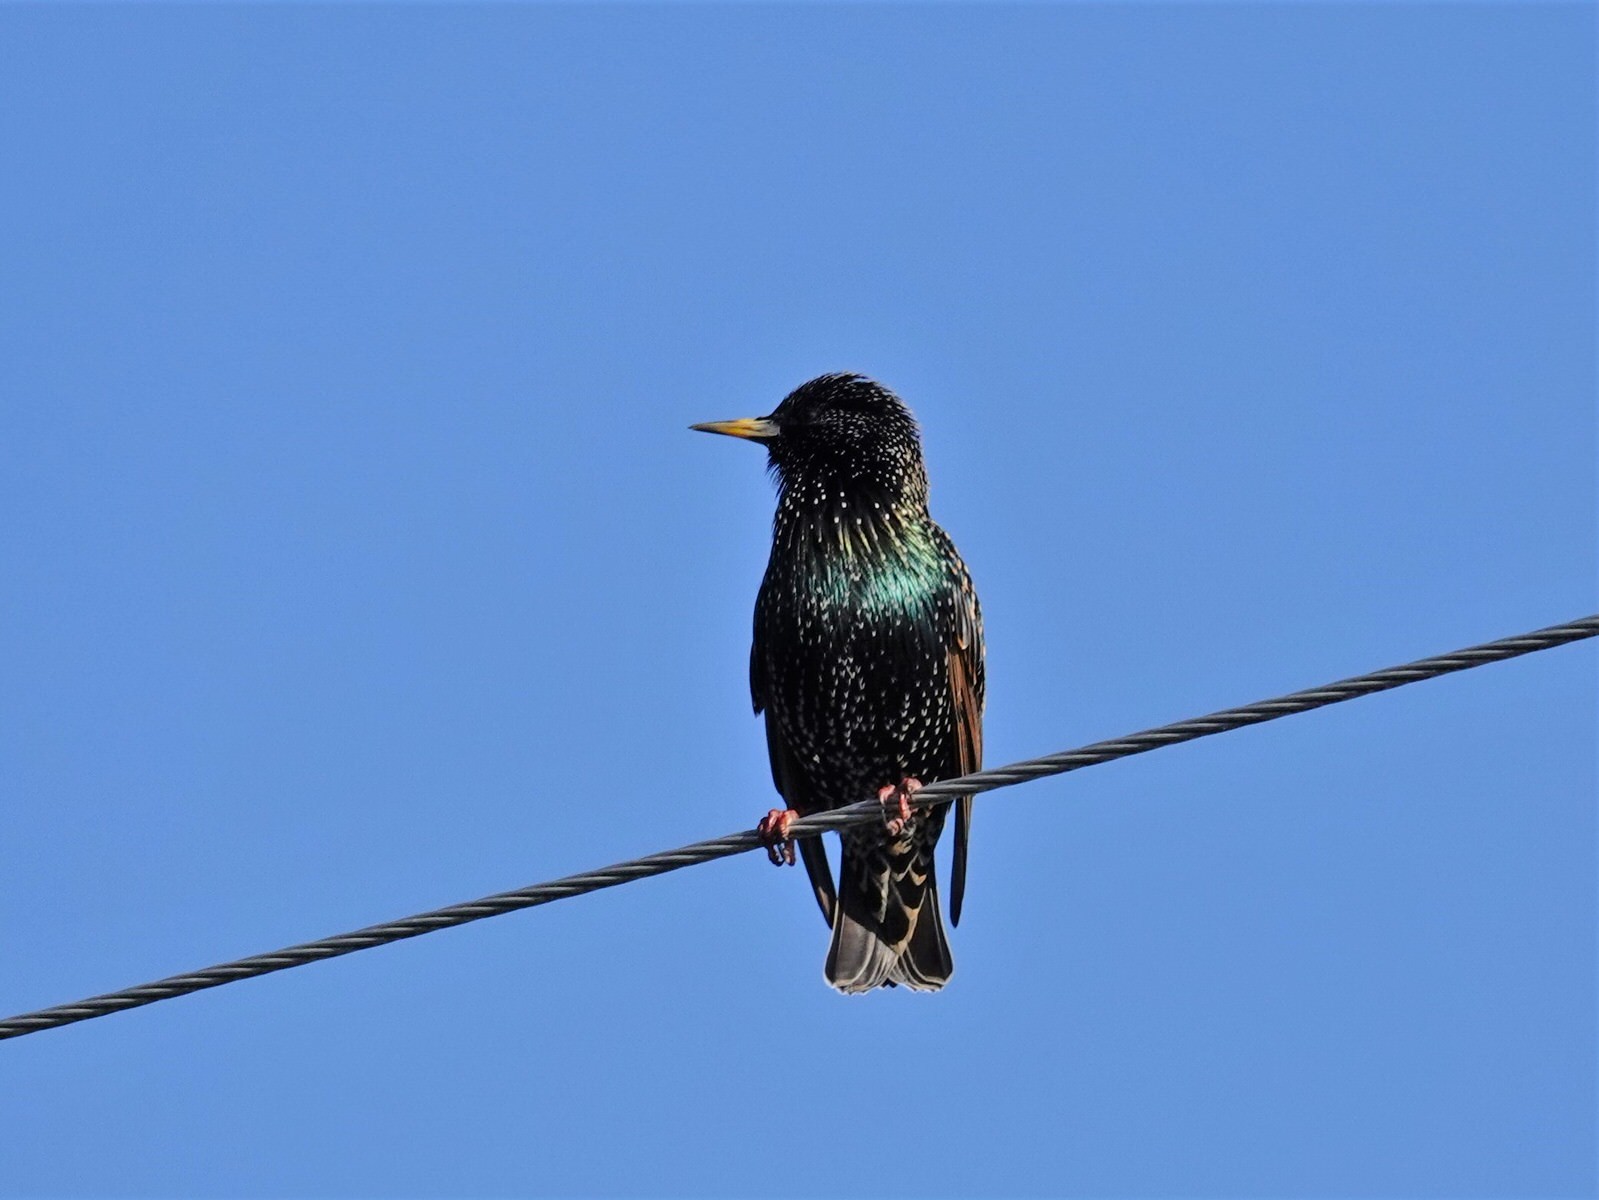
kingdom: Animalia
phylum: Chordata
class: Aves
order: Passeriformes
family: Sturnidae
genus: Sturnus
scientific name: Sturnus vulgaris
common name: Common starling
